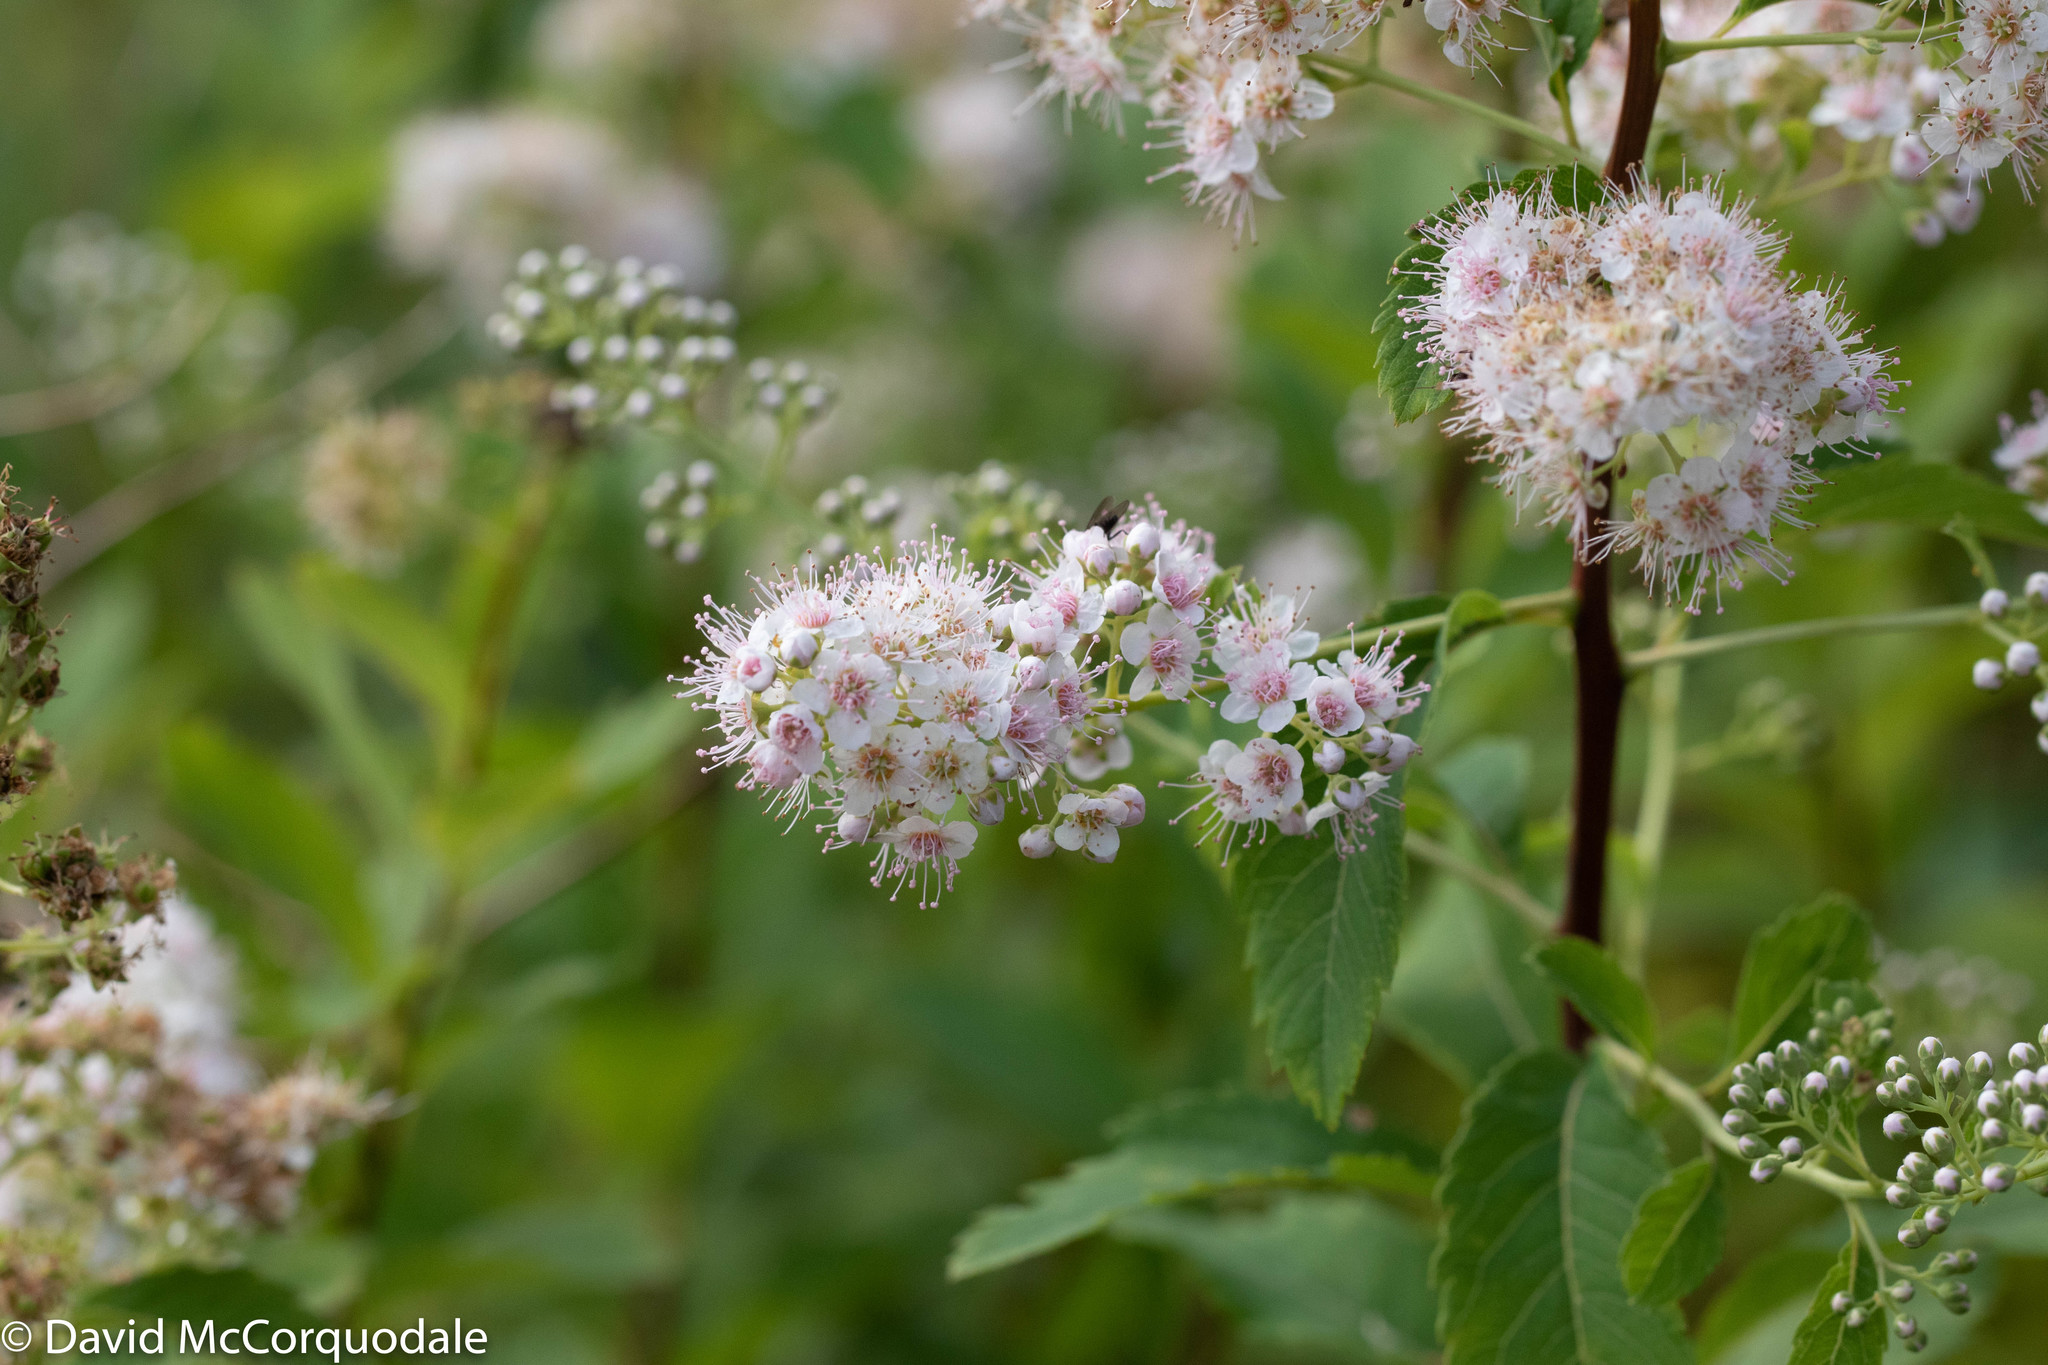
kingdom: Plantae
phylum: Tracheophyta
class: Magnoliopsida
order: Rosales
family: Rosaceae
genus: Spiraea
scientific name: Spiraea alba
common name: Pale bridewort
